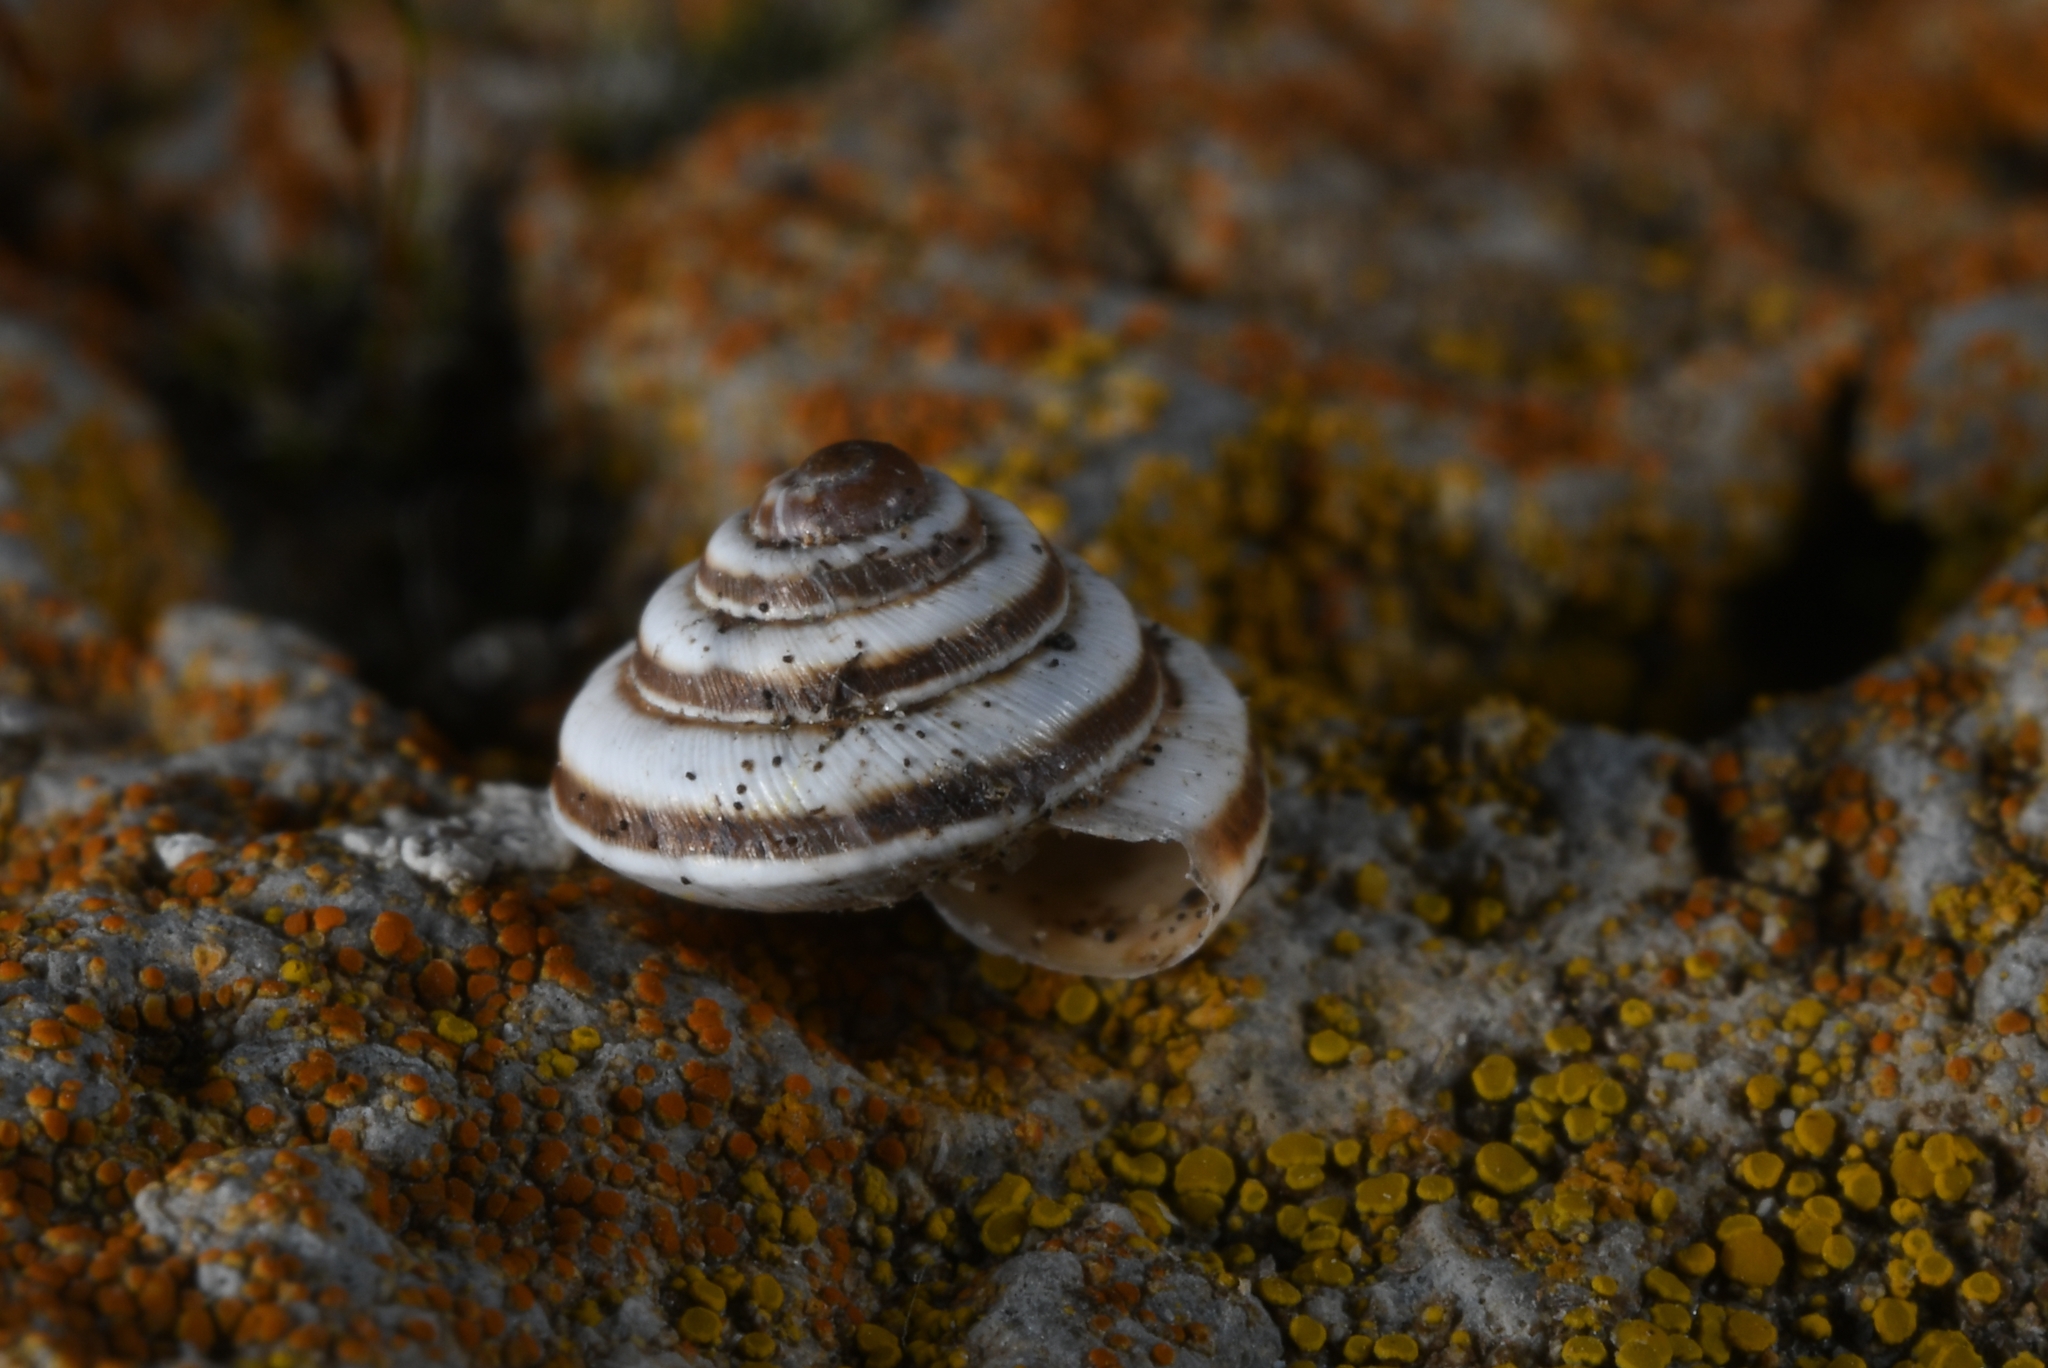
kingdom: Animalia
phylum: Mollusca
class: Gastropoda
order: Stylommatophora
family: Geomitridae
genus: Trochoidea
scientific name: Trochoidea trochoides
